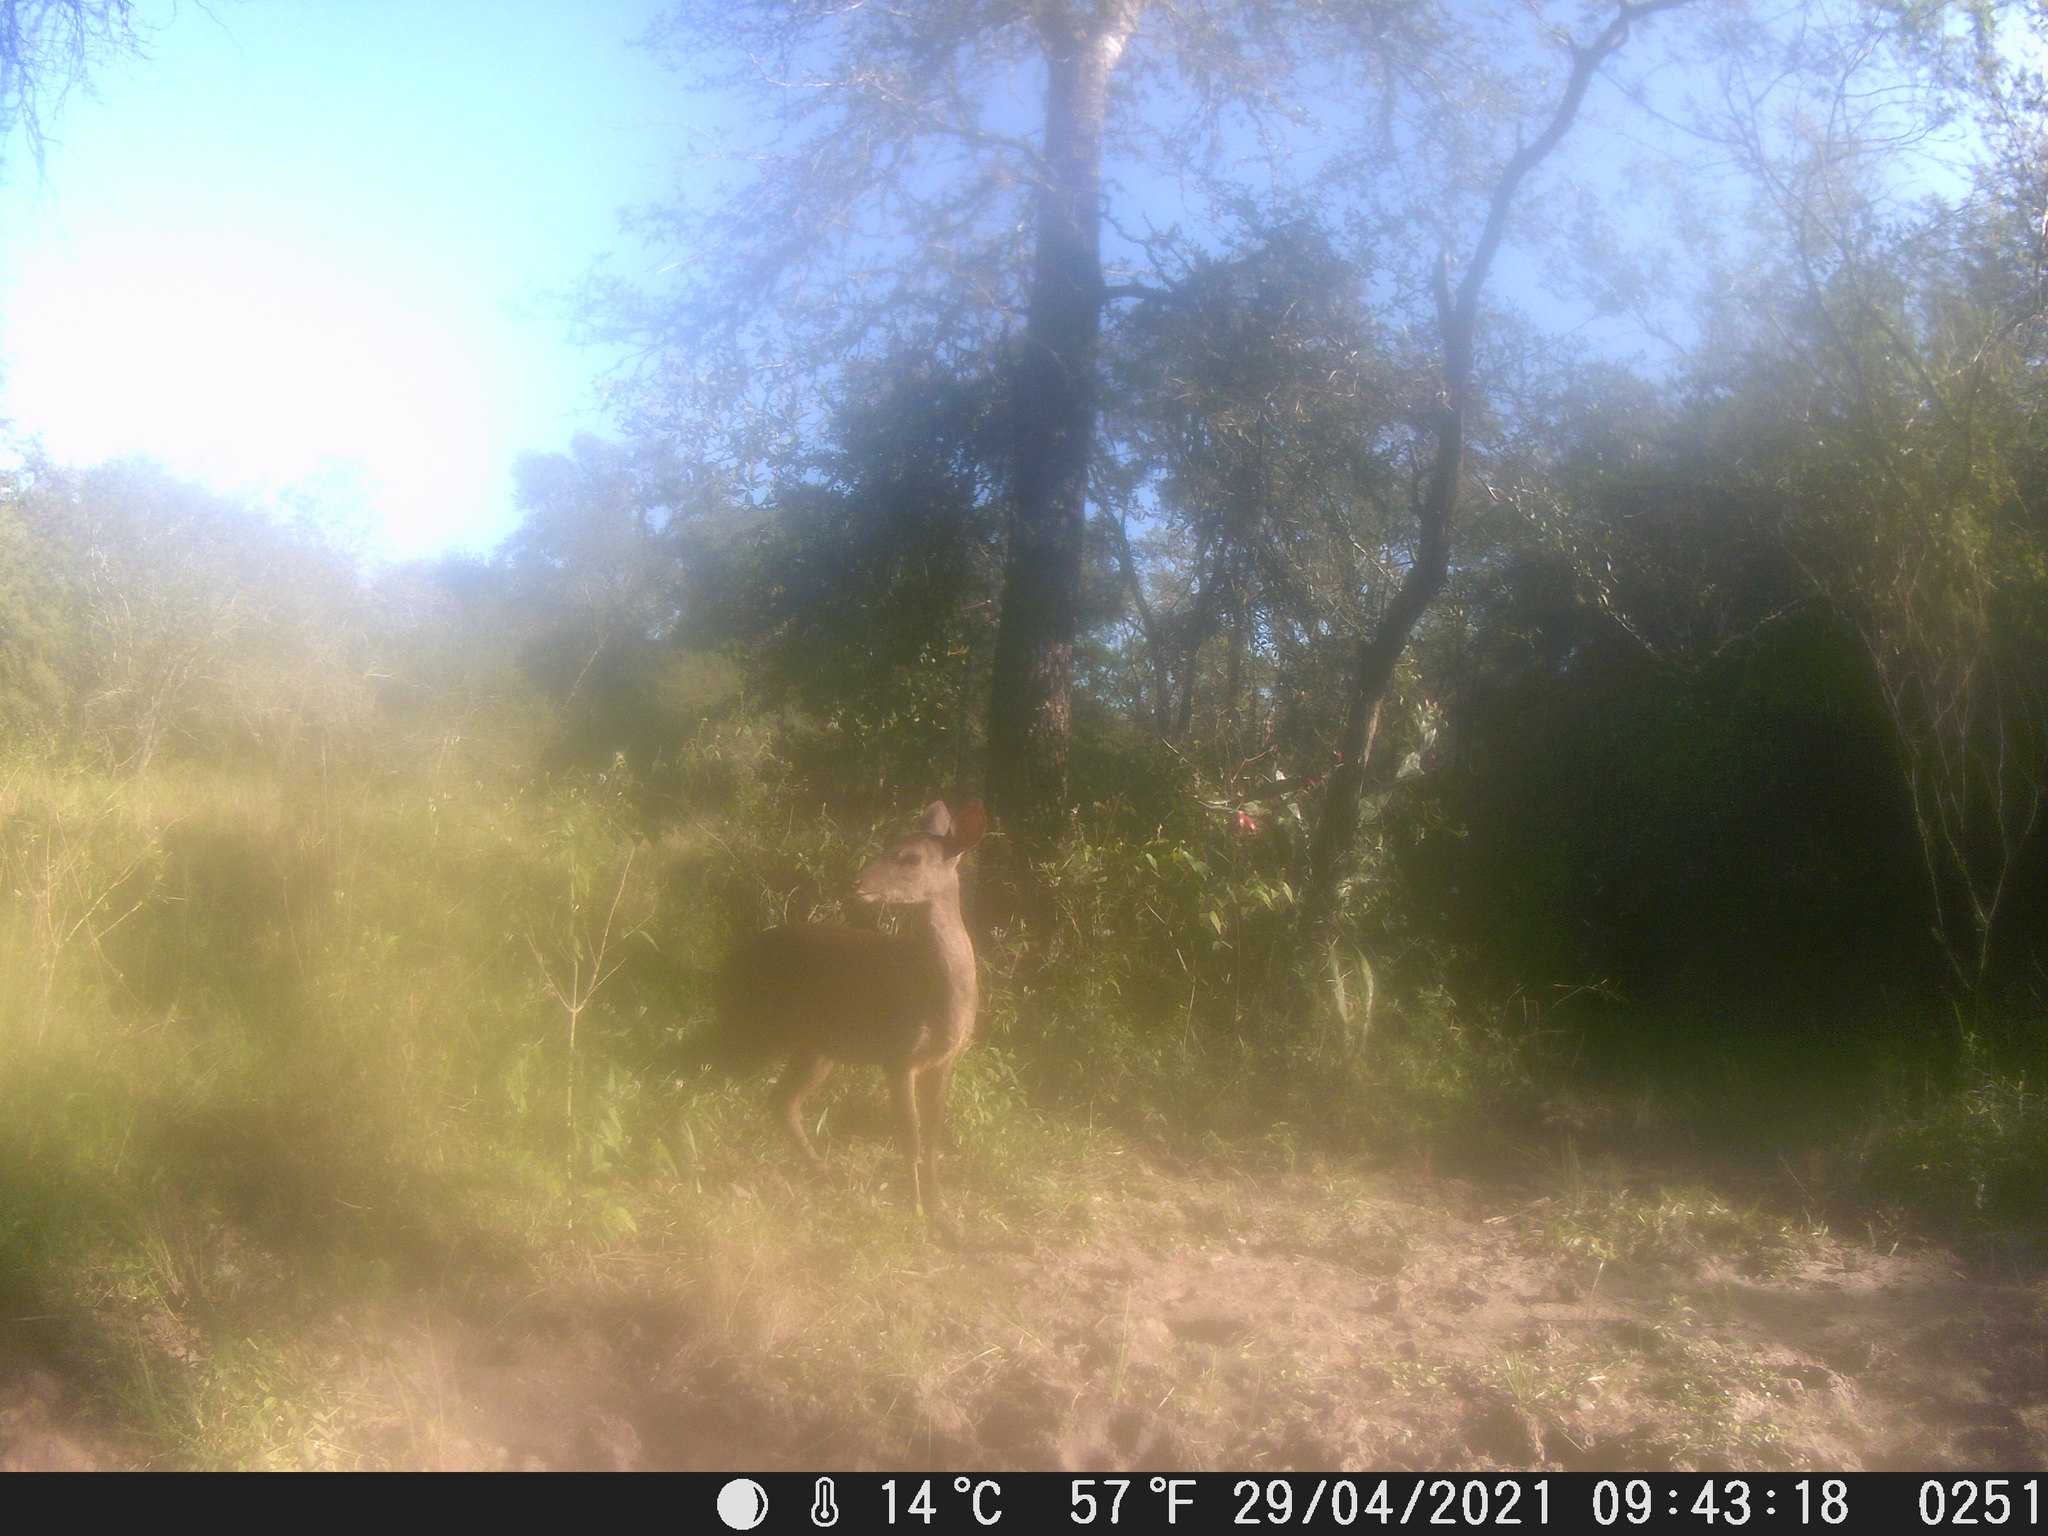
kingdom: Animalia
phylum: Chordata
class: Mammalia
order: Artiodactyla
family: Cervidae
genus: Mazama
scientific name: Mazama gouazoubira
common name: Gray brocket
